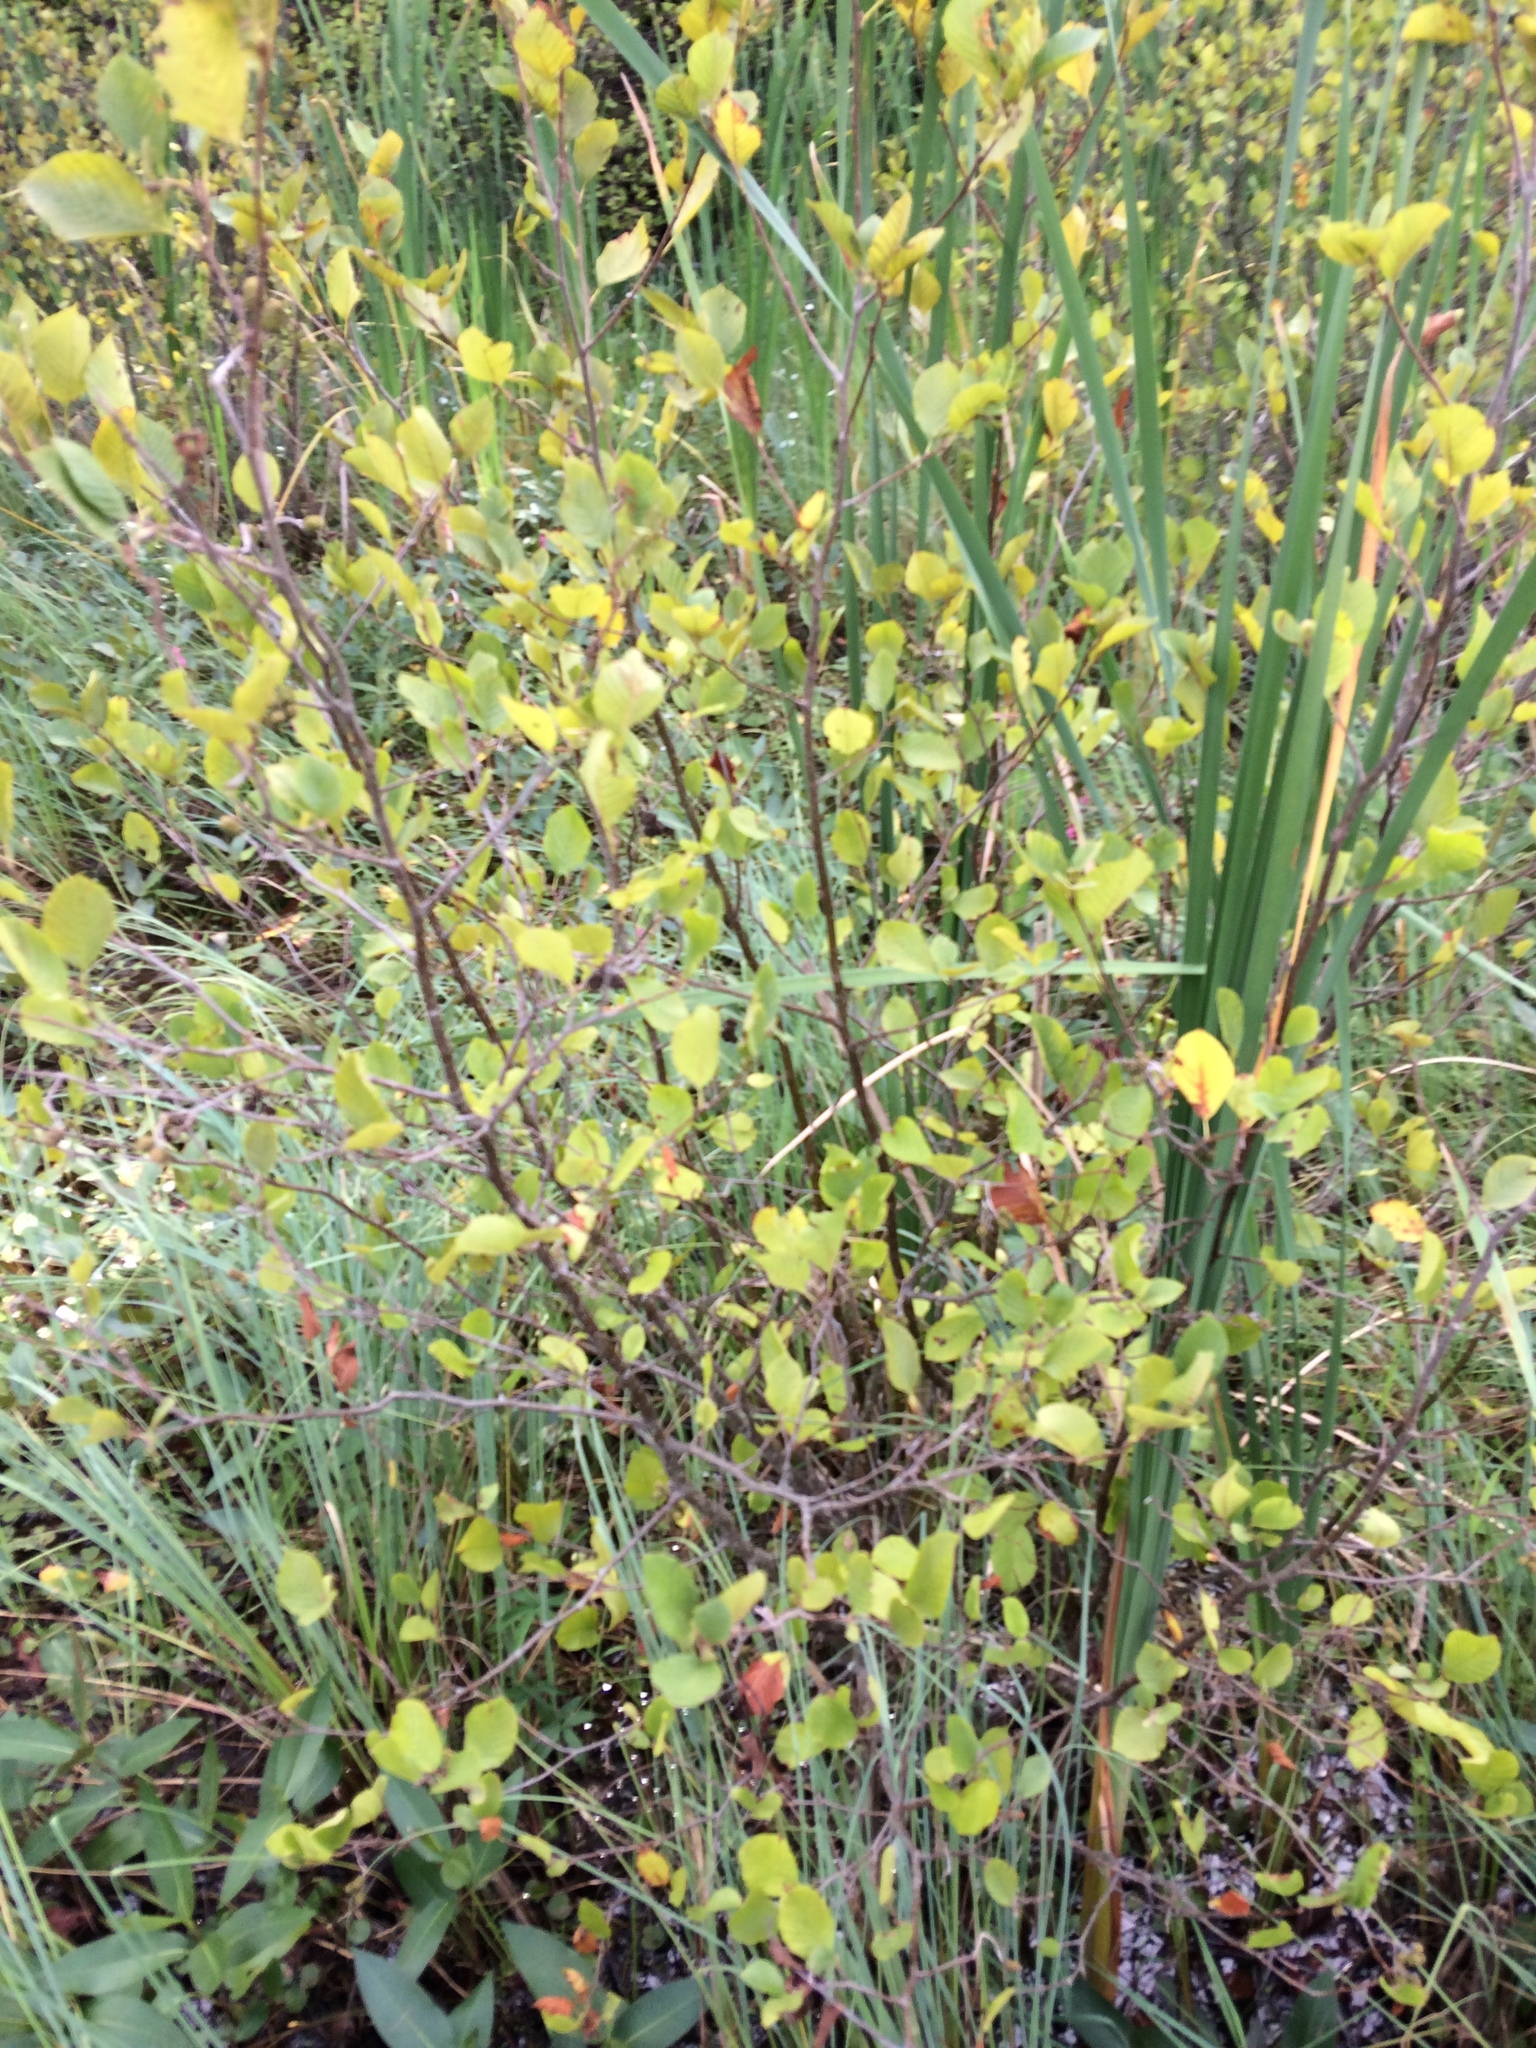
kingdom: Plantae
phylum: Tracheophyta
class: Magnoliopsida
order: Fagales
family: Betulaceae
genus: Alnus
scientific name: Alnus incana
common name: Grey alder
